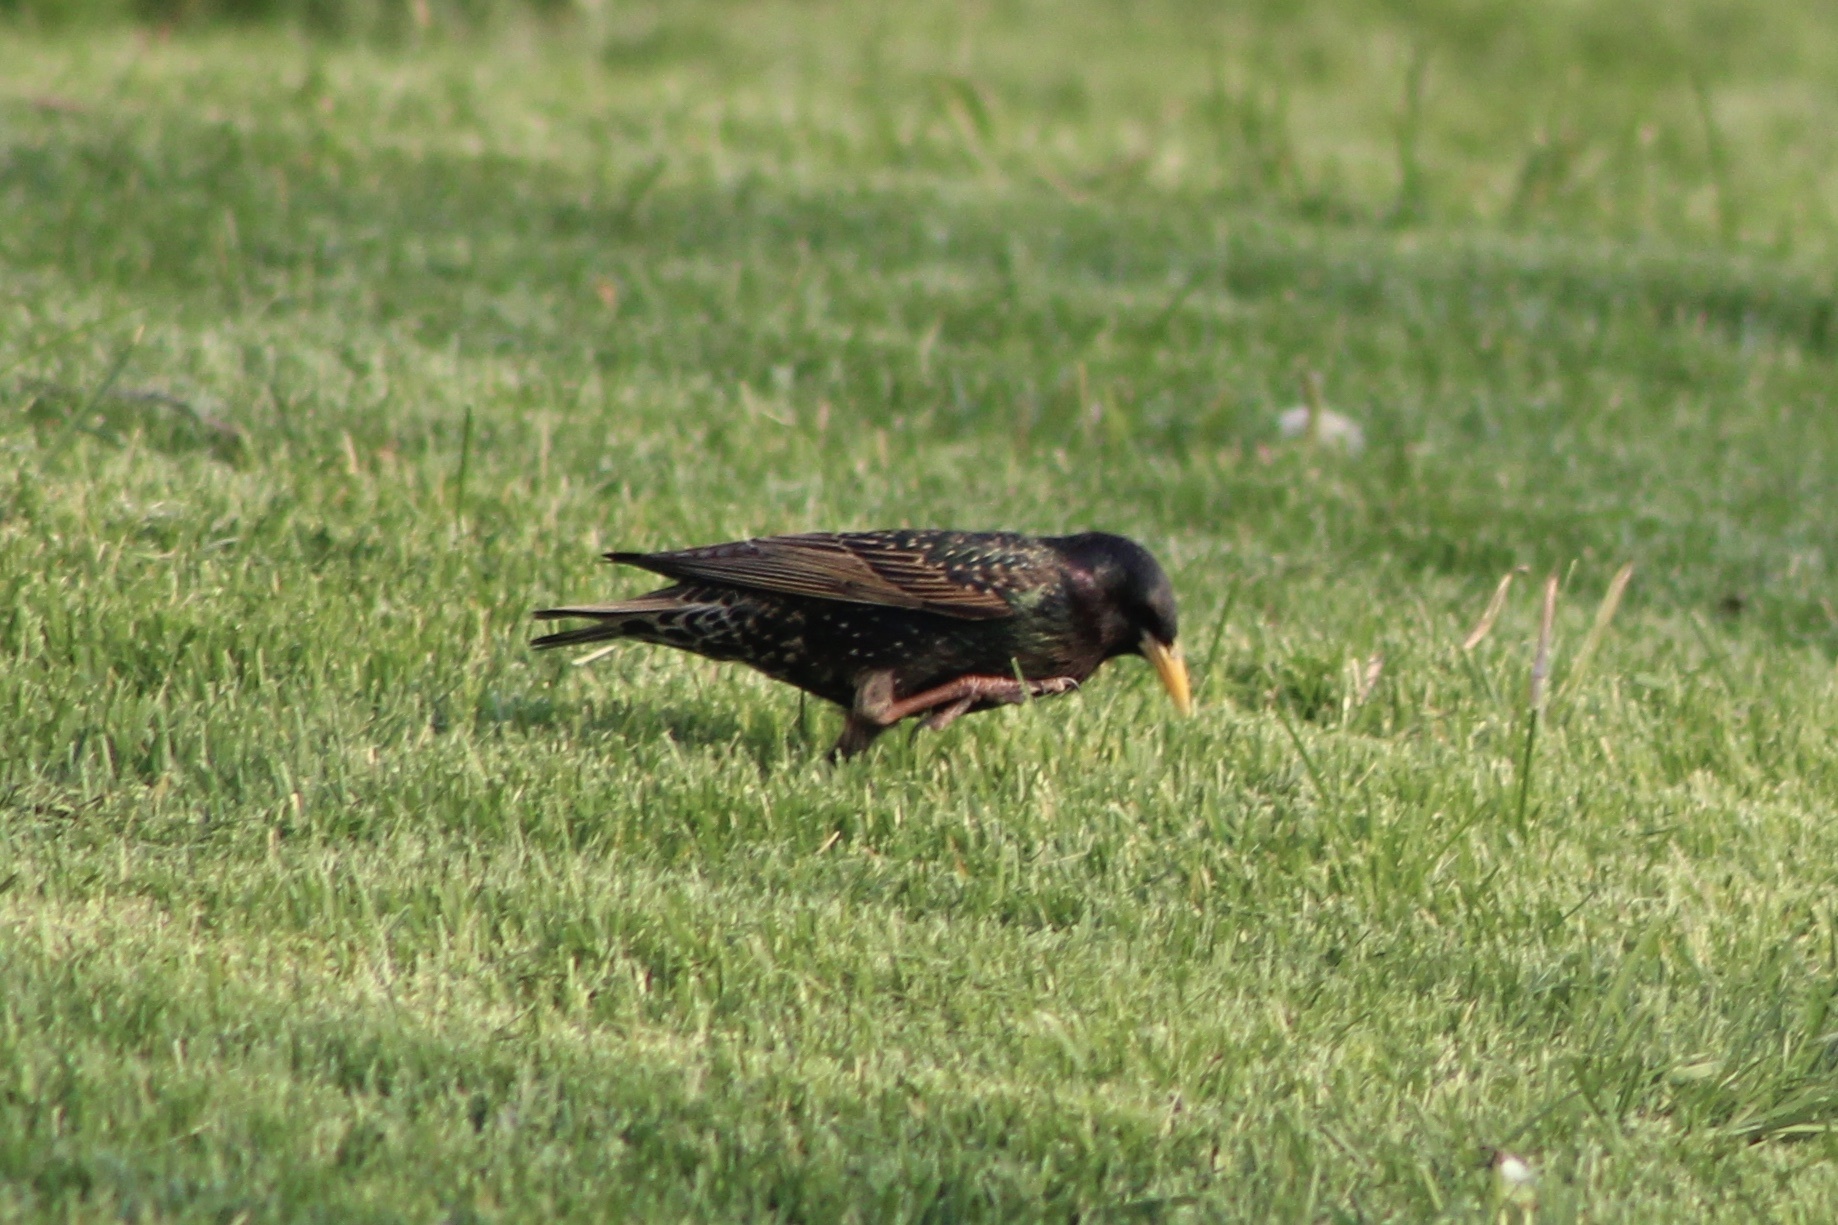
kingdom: Animalia
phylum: Chordata
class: Aves
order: Passeriformes
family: Sturnidae
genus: Sturnus
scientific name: Sturnus vulgaris
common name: Common starling
